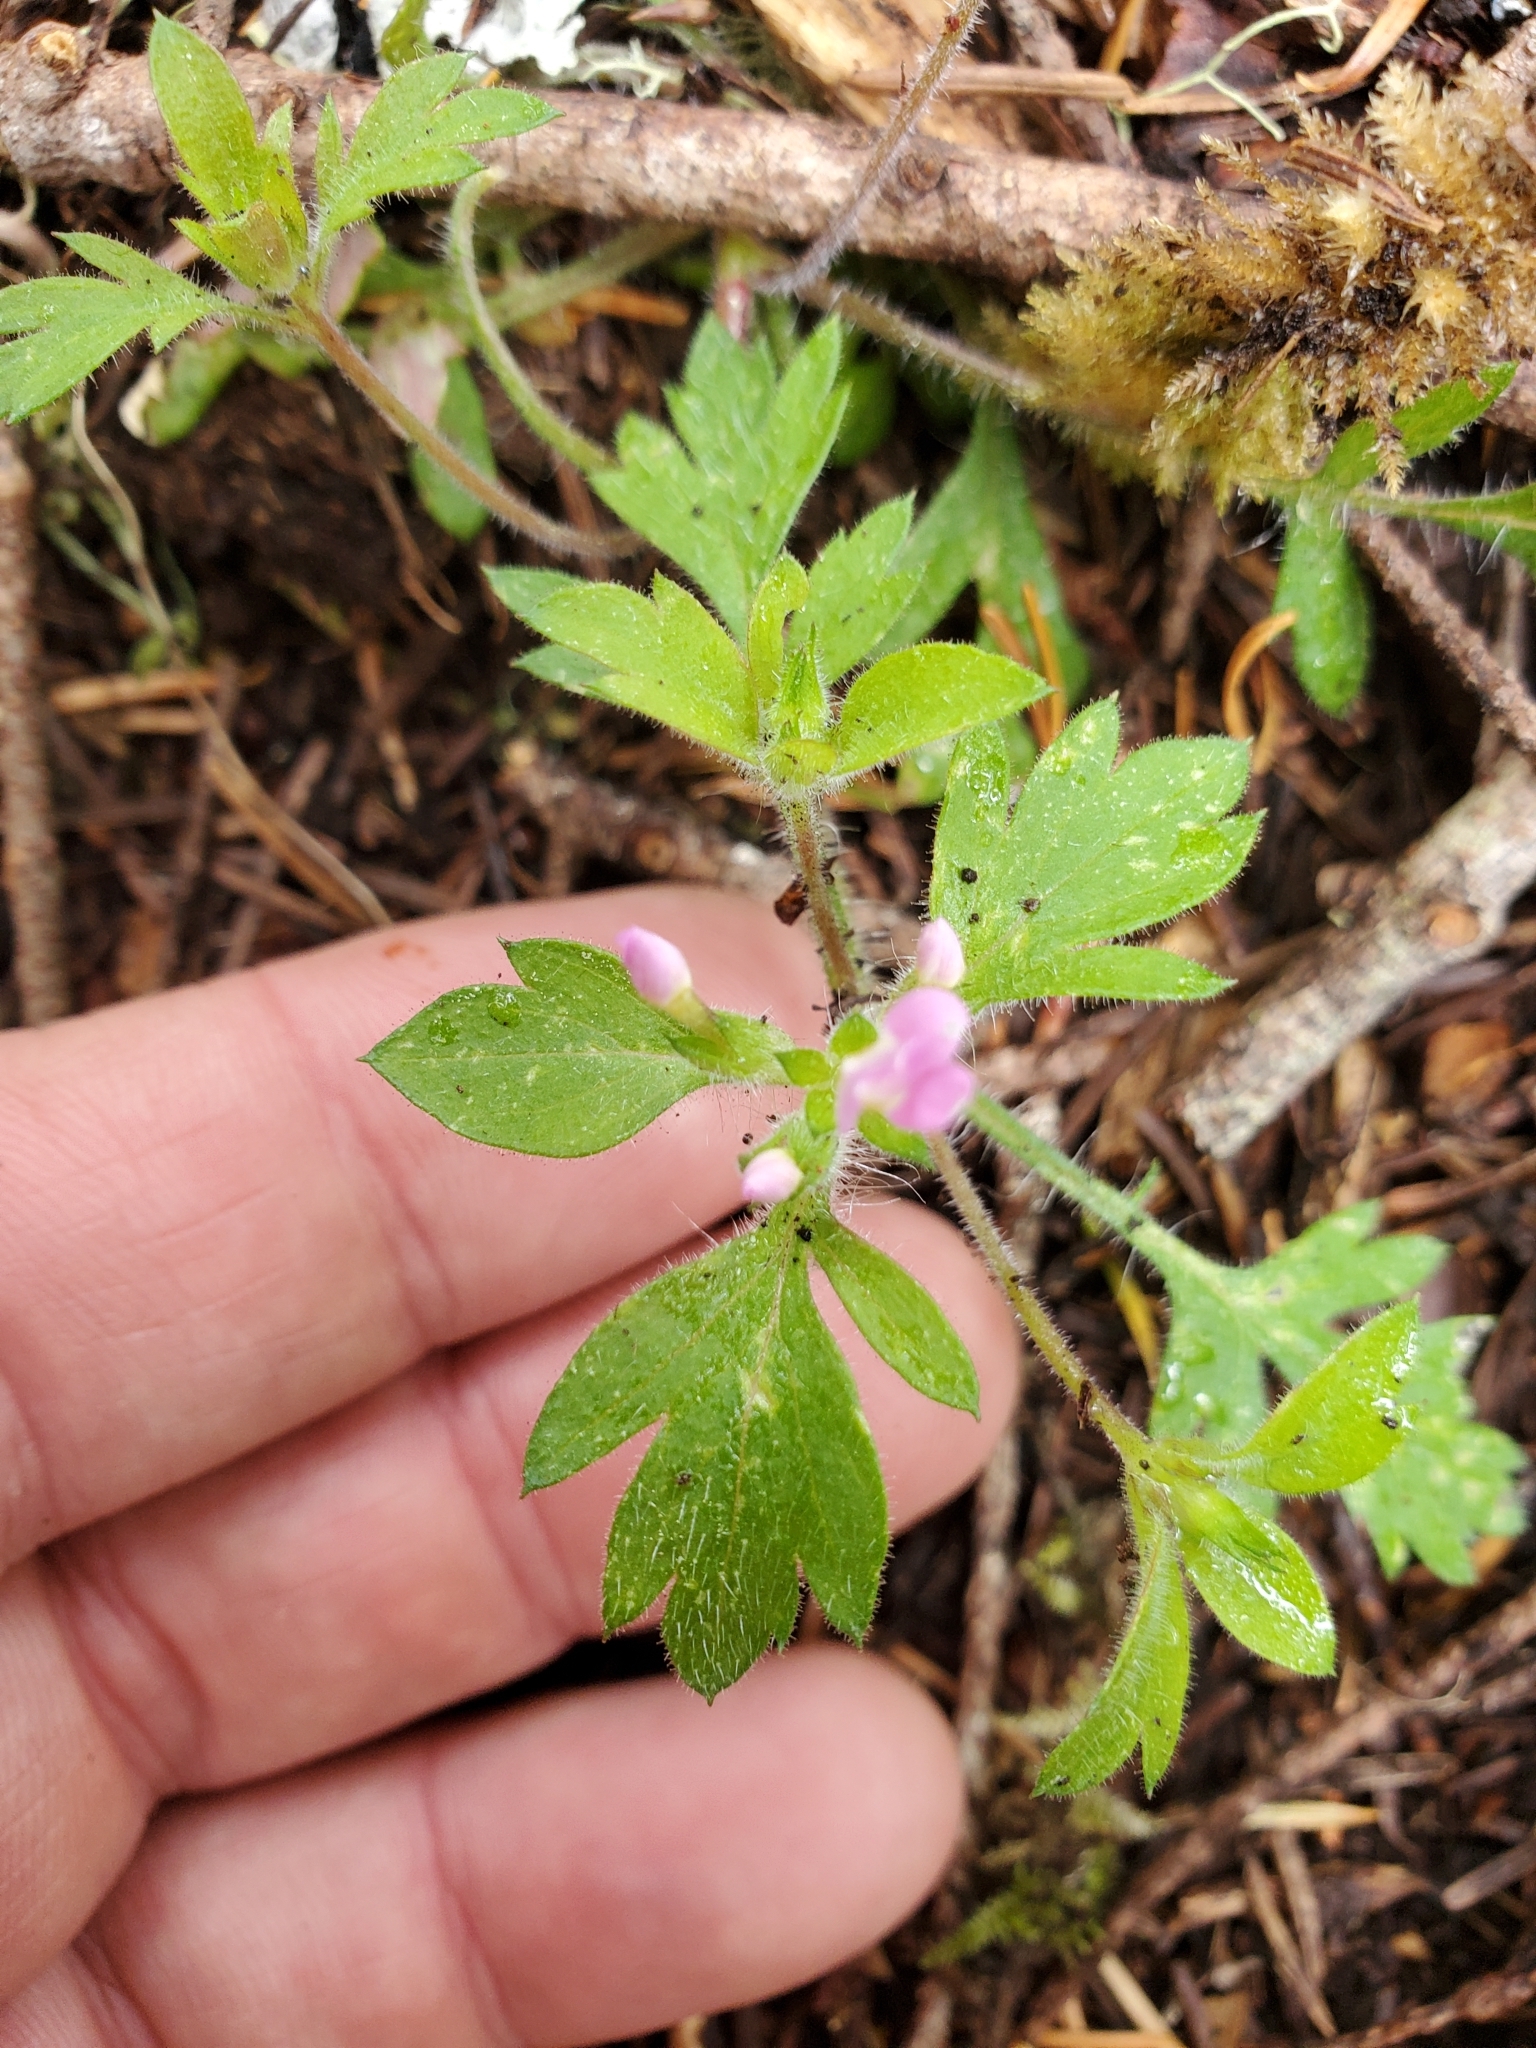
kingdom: Plantae
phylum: Tracheophyta
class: Magnoliopsida
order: Ericales
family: Polemoniaceae
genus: Collomia
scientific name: Collomia heterophylla
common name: Variable-leaved collomia
